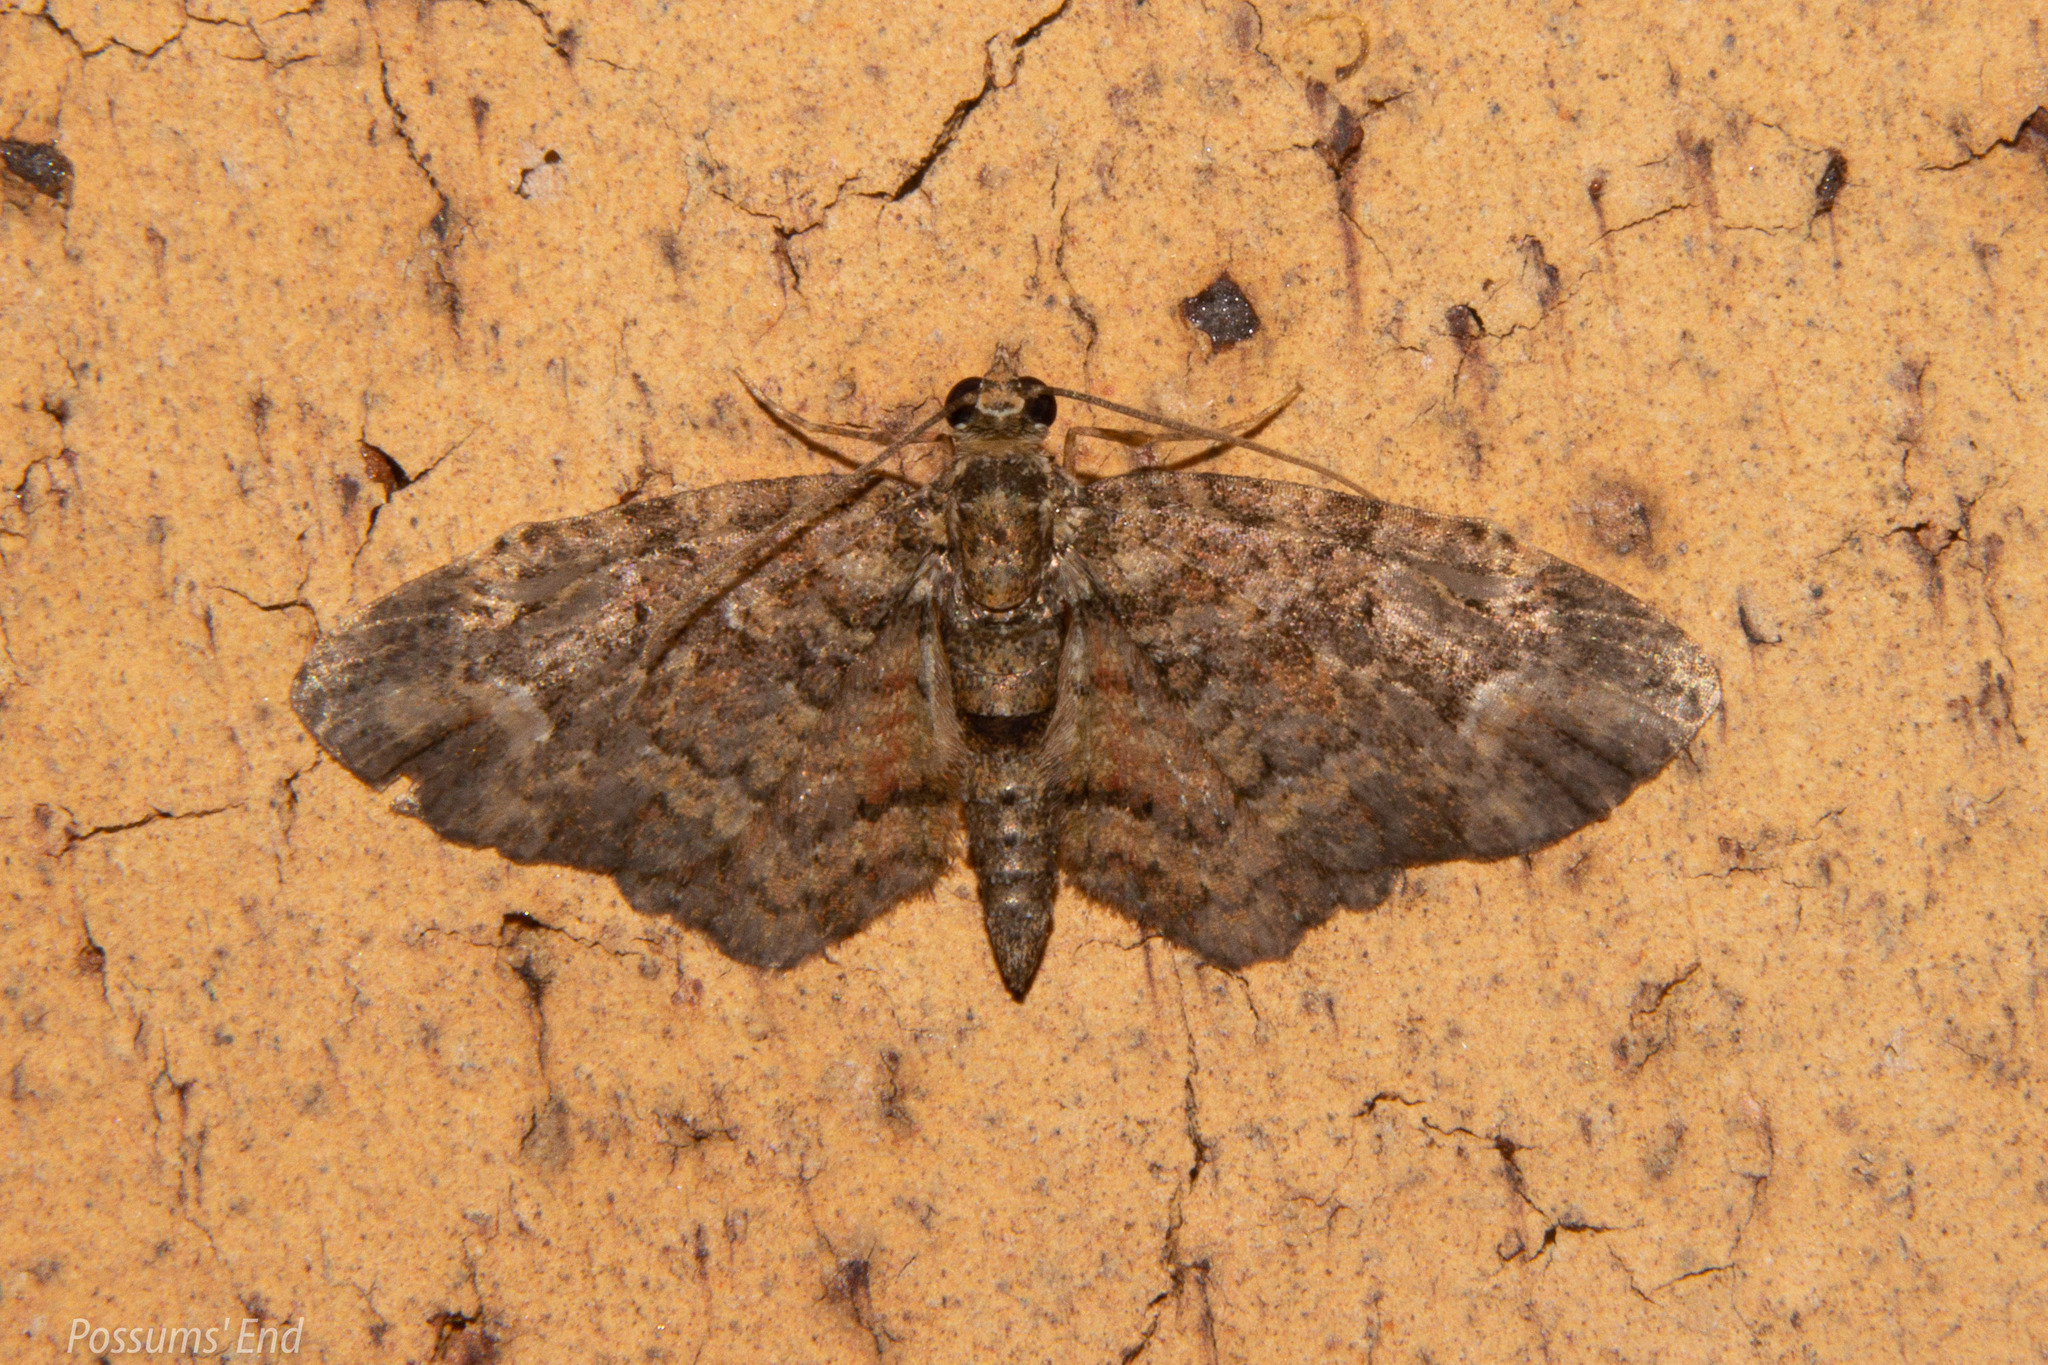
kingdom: Animalia
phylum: Arthropoda
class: Insecta
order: Lepidoptera
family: Geometridae
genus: Pasiphilodes
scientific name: Pasiphilodes testulata
